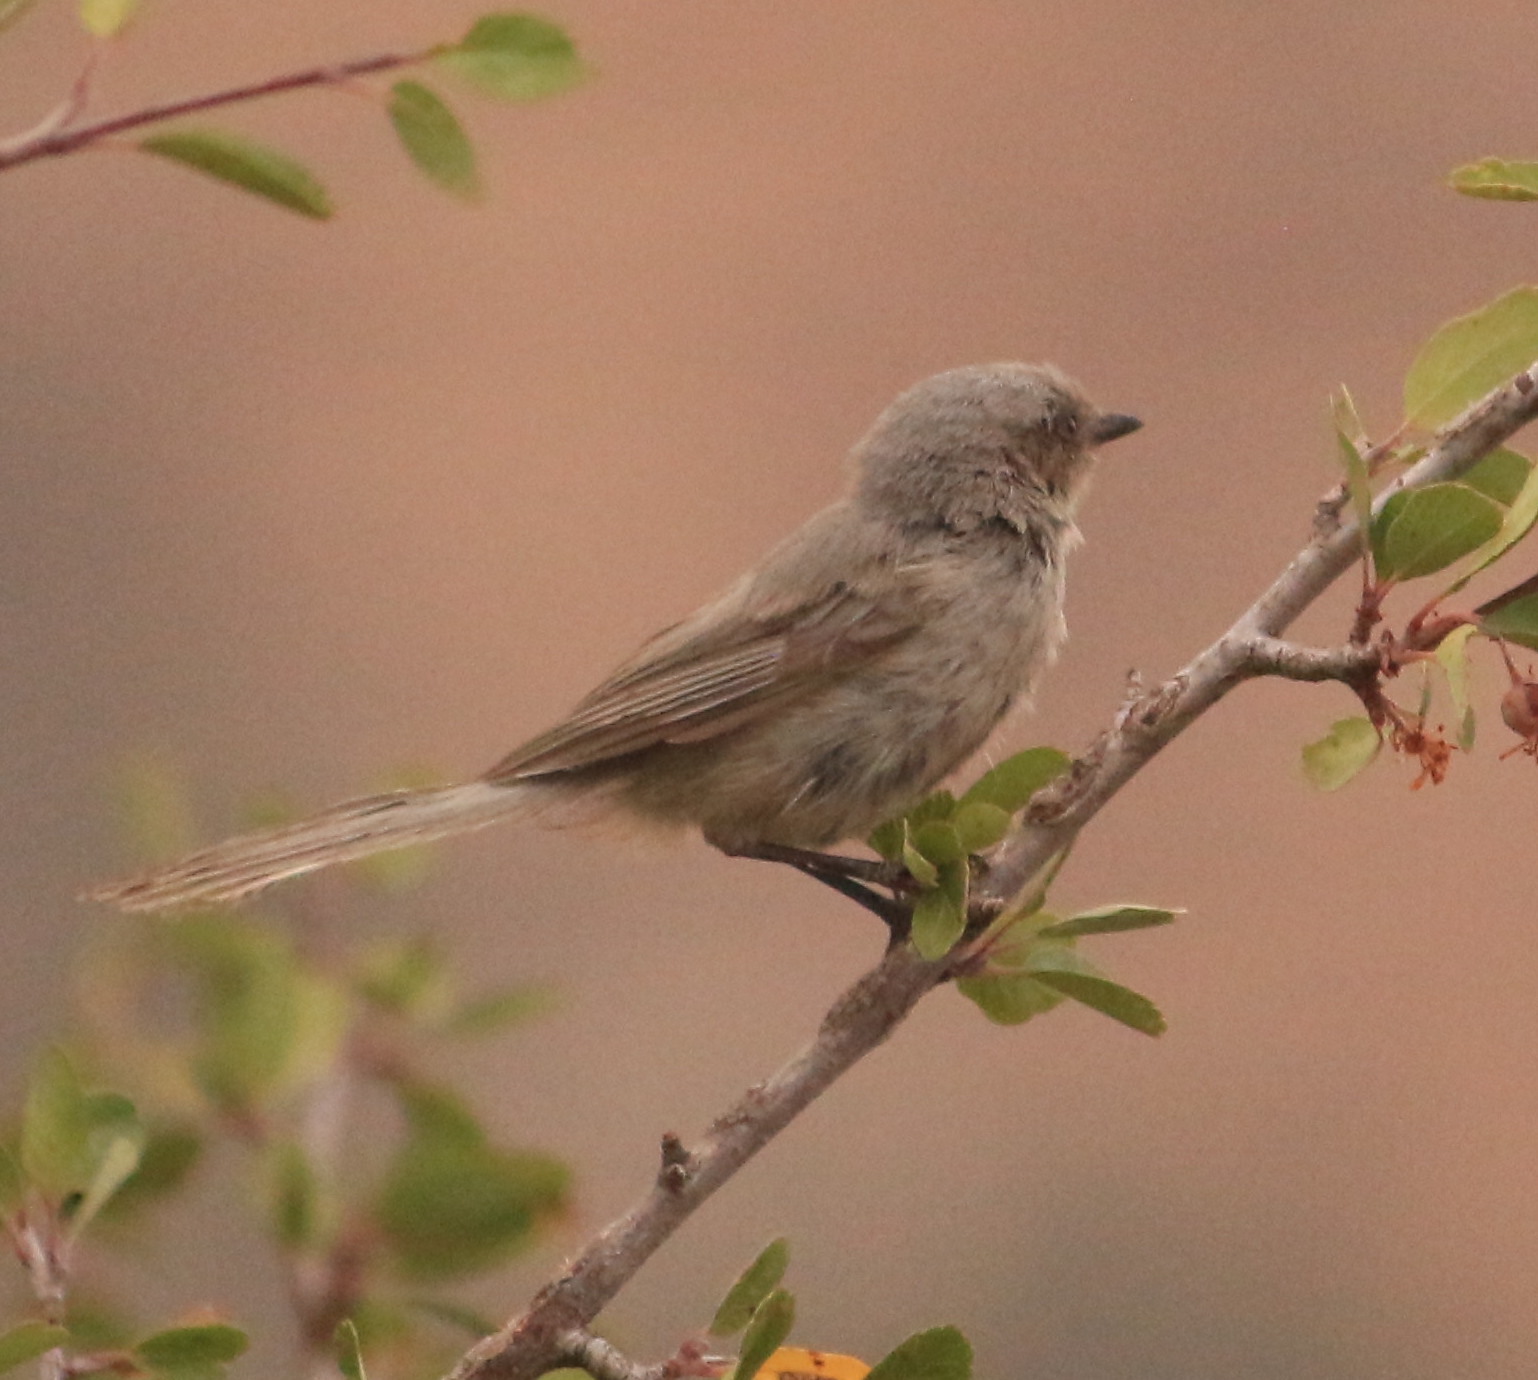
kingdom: Animalia
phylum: Chordata
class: Aves
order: Passeriformes
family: Aegithalidae
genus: Psaltriparus
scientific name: Psaltriparus minimus
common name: American bushtit
